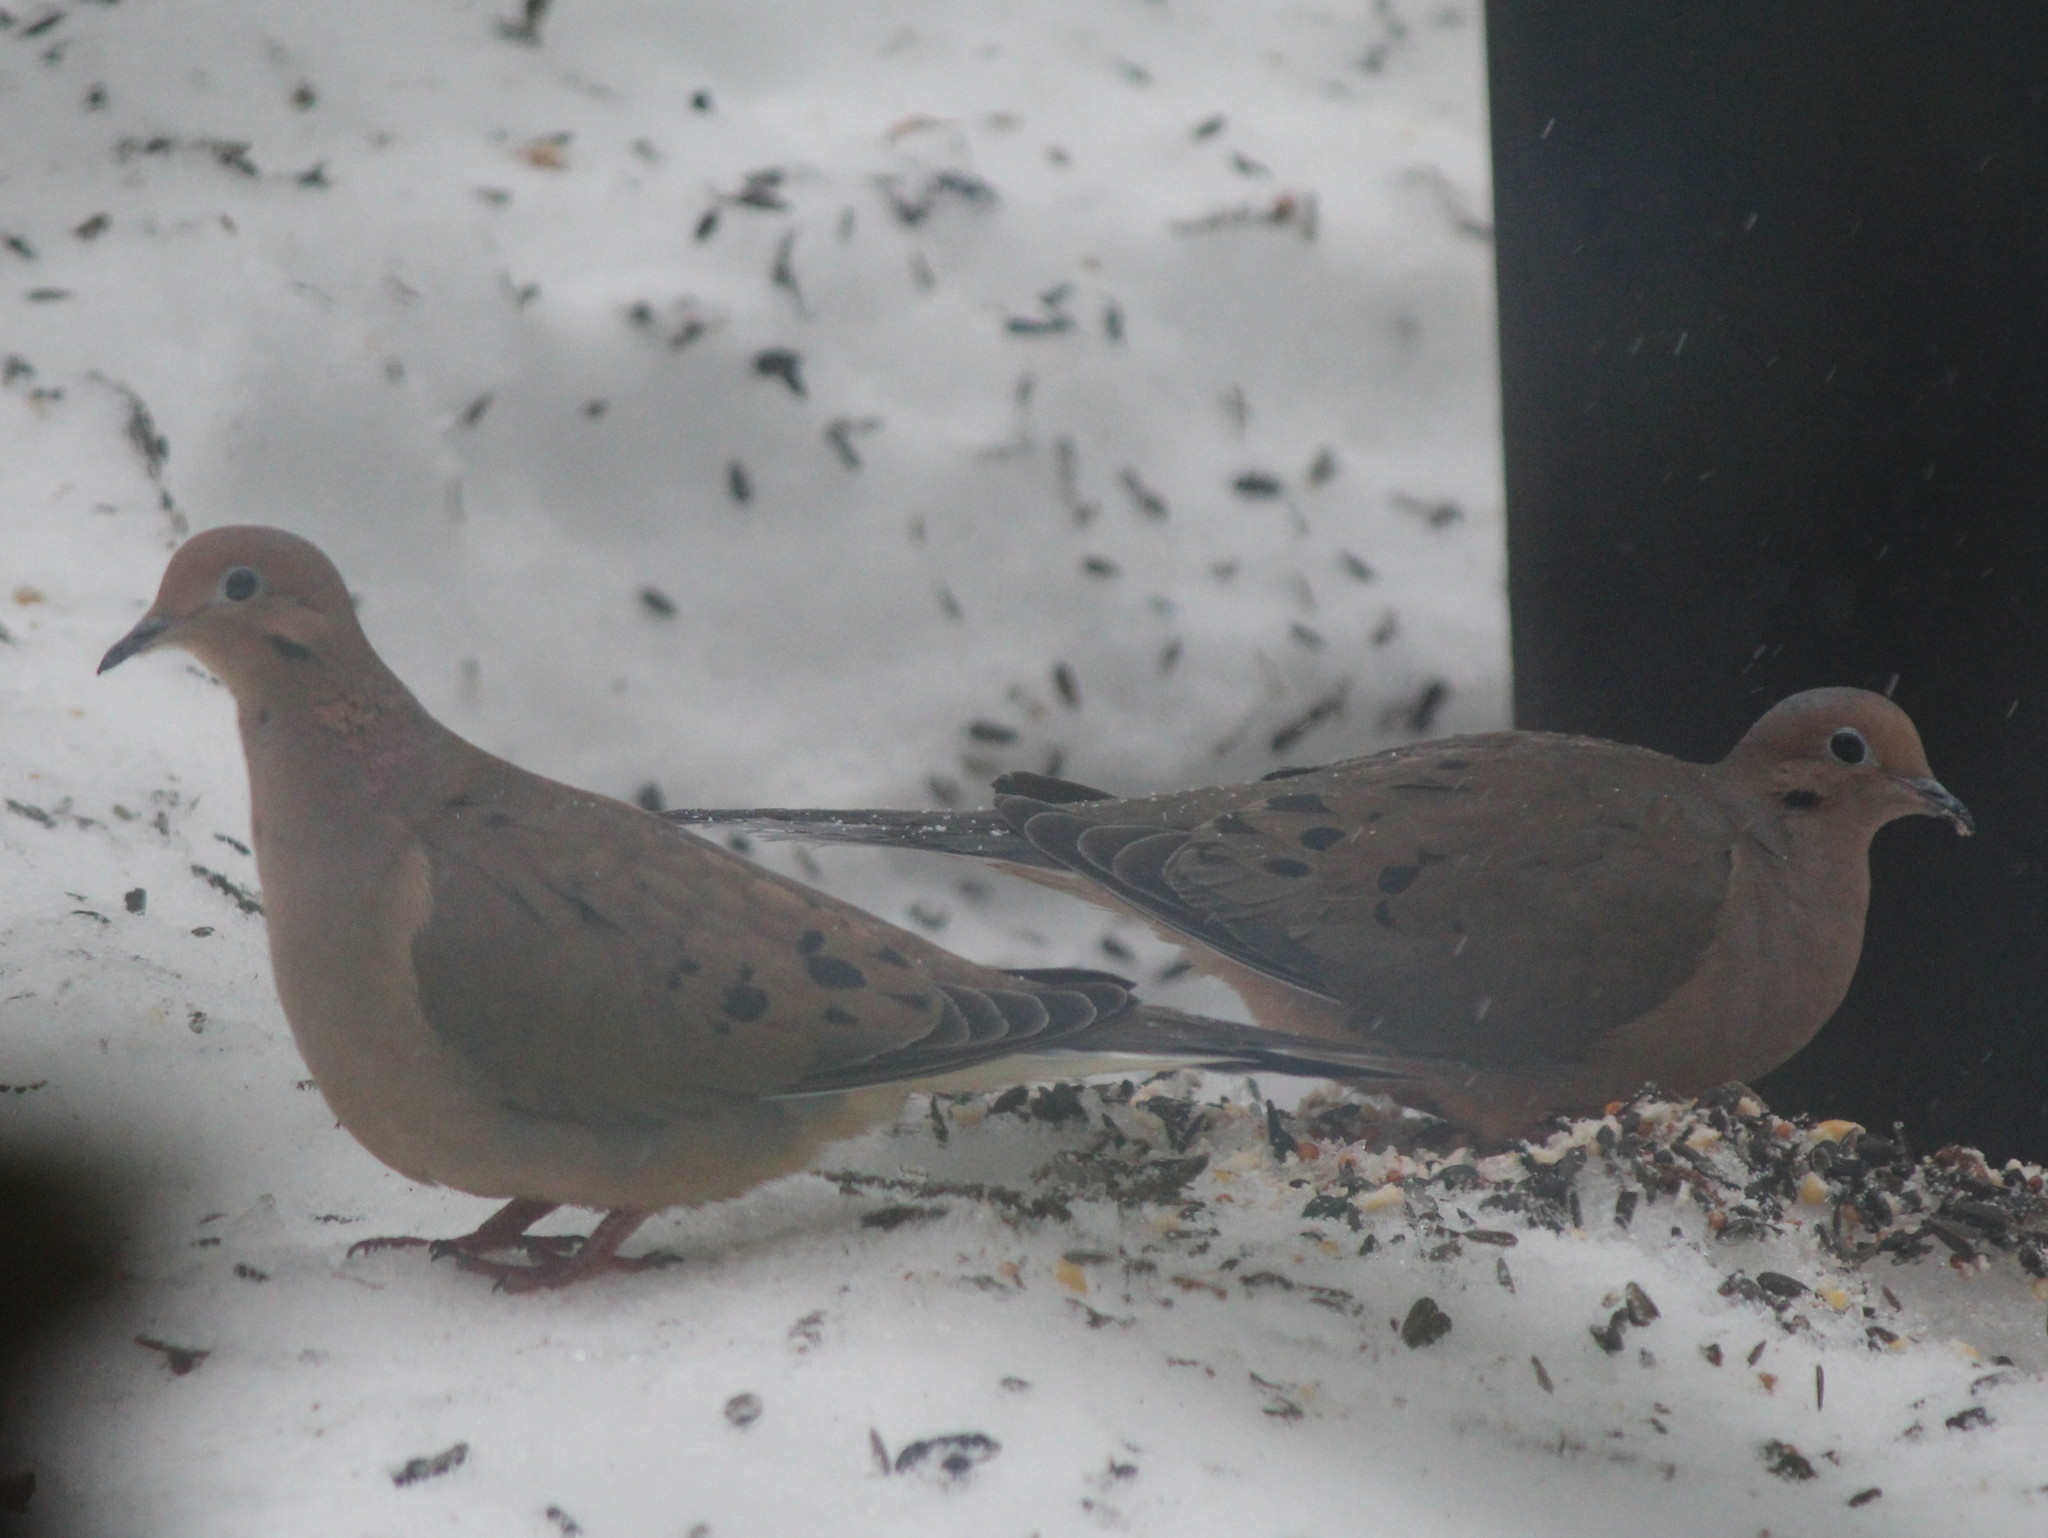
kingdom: Animalia
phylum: Chordata
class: Aves
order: Columbiformes
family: Columbidae
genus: Zenaida
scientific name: Zenaida macroura
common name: Mourning dove
